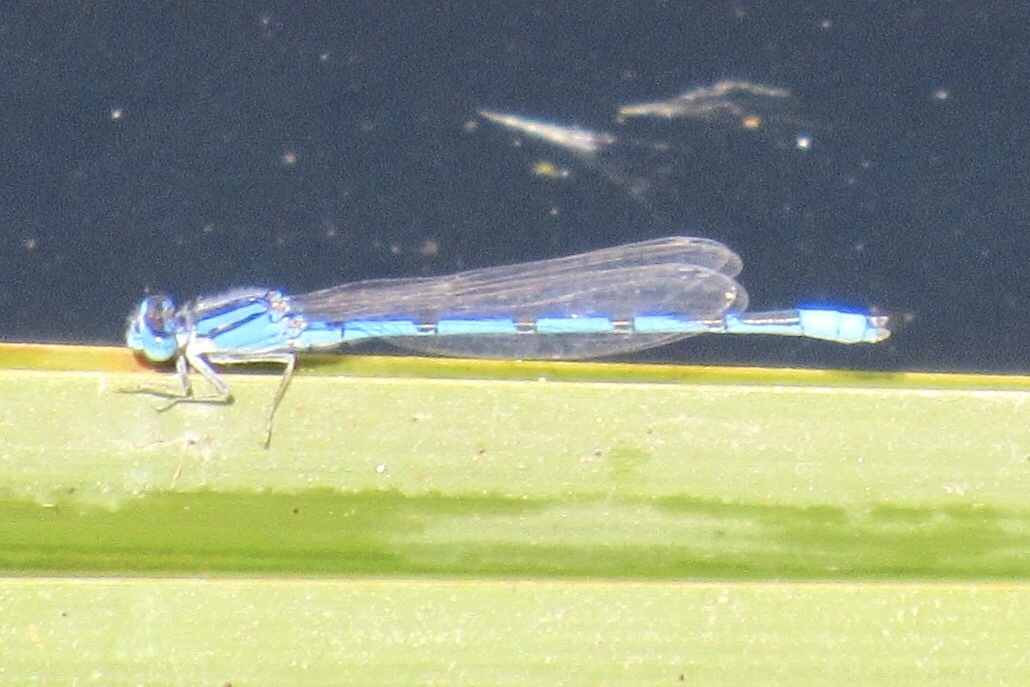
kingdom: Animalia
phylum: Arthropoda
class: Insecta
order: Odonata
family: Coenagrionidae
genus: Enallagma
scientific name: Enallagma civile
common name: Damselfly
